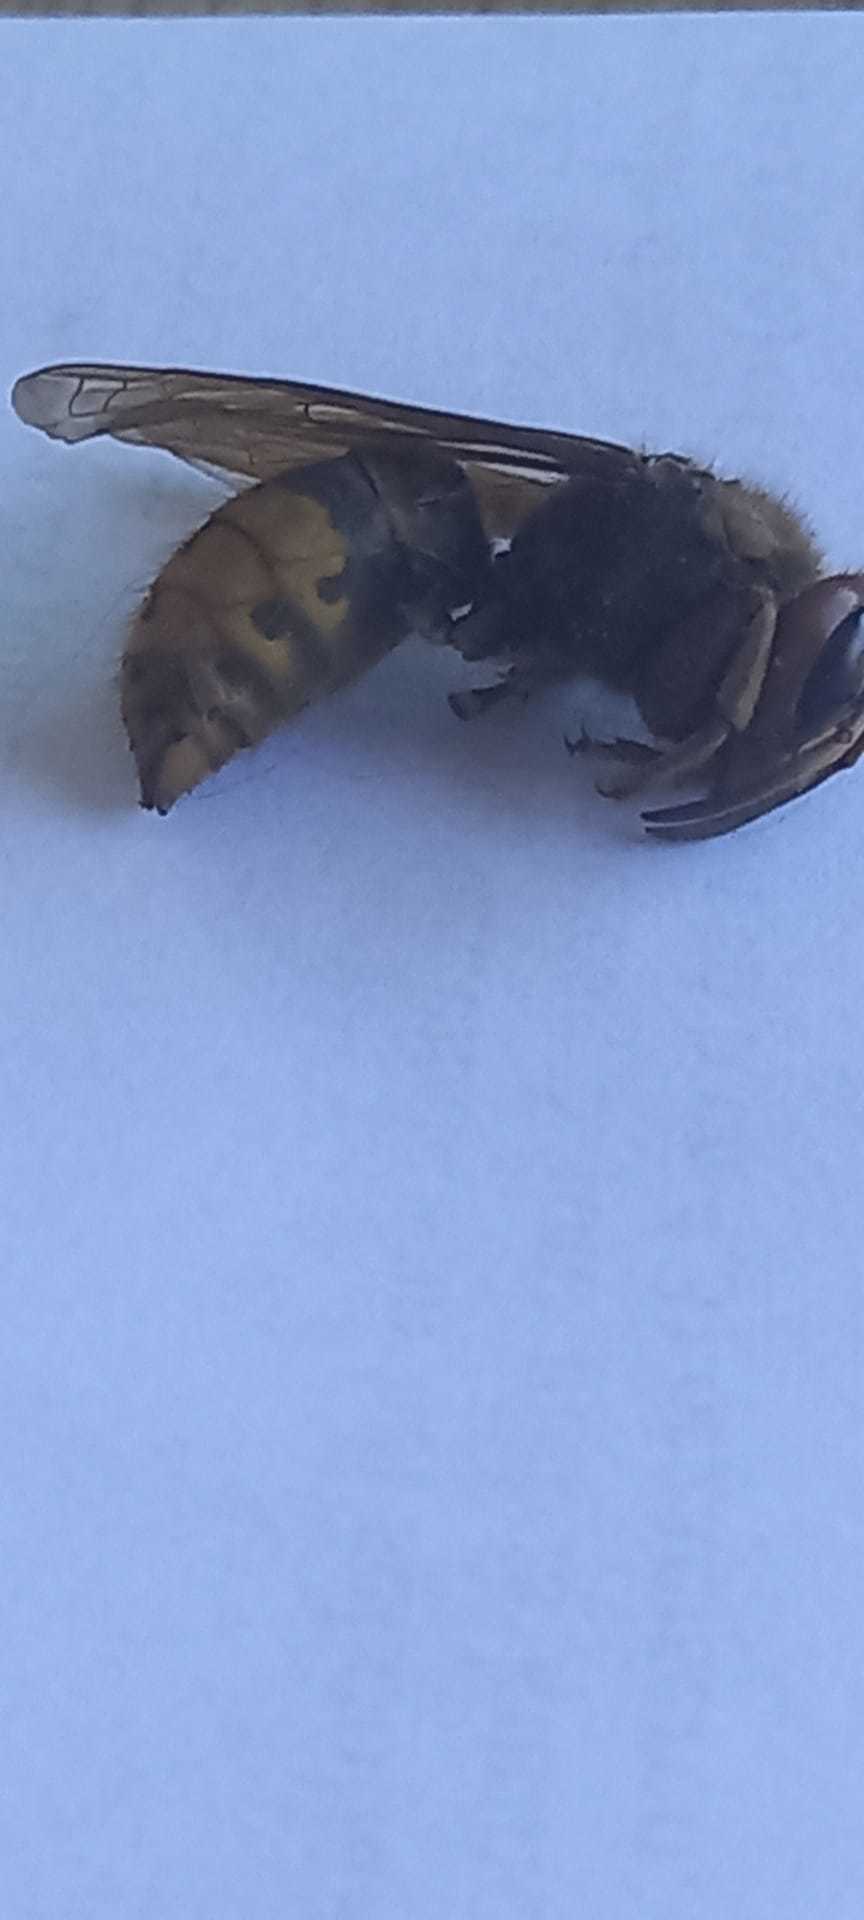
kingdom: Animalia
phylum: Arthropoda
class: Insecta
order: Hymenoptera
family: Vespidae
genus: Vespa
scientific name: Vespa crabro
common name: Hornet
